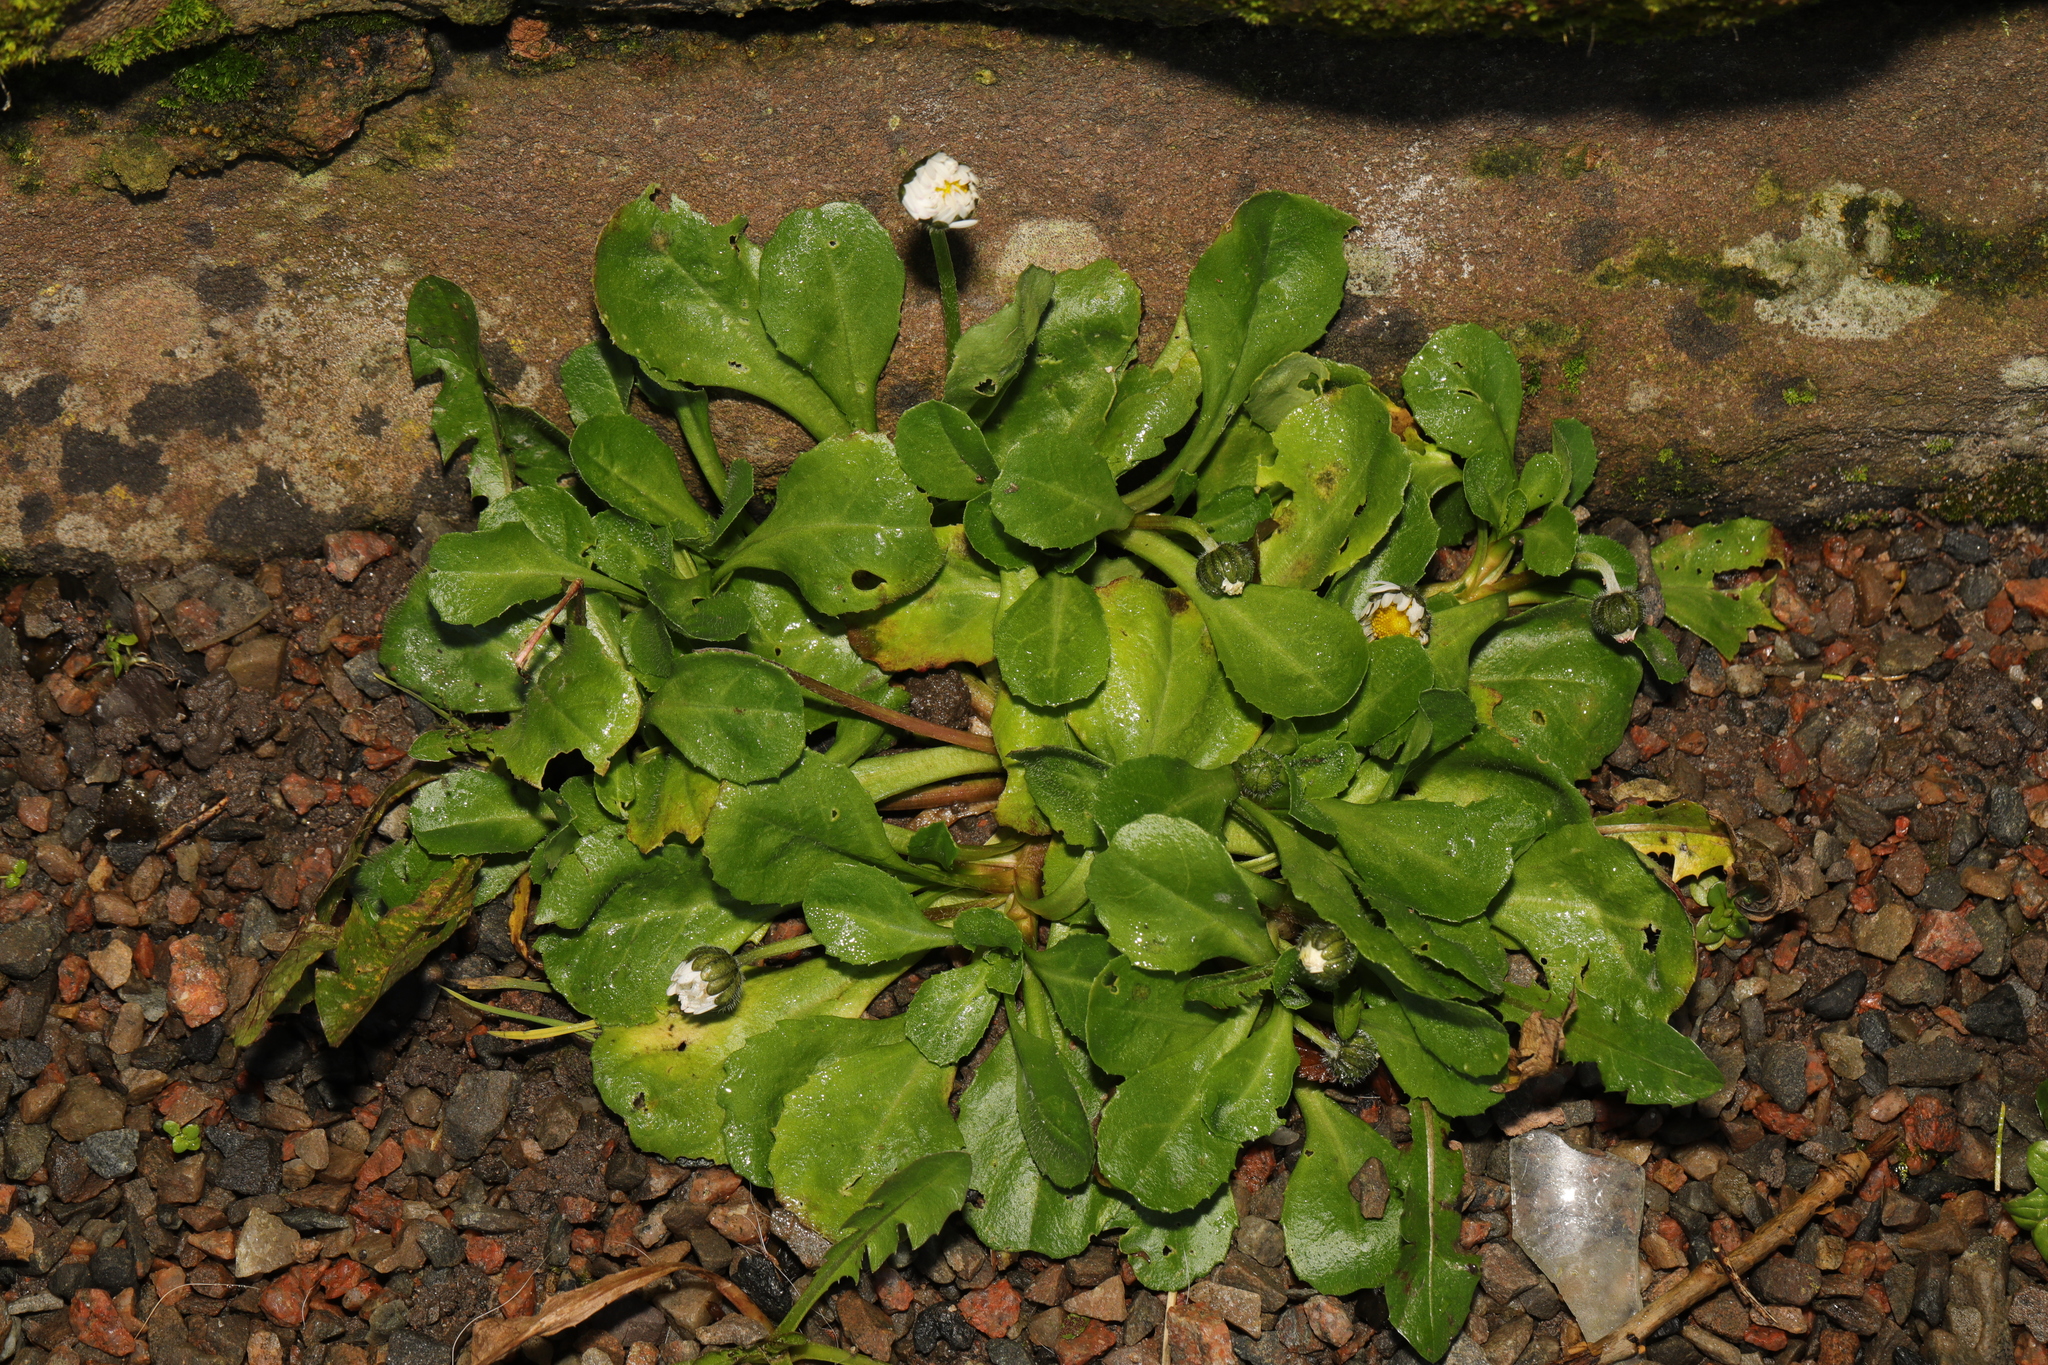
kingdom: Plantae
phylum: Tracheophyta
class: Magnoliopsida
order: Asterales
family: Asteraceae
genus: Bellis
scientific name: Bellis perennis
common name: Lawndaisy
